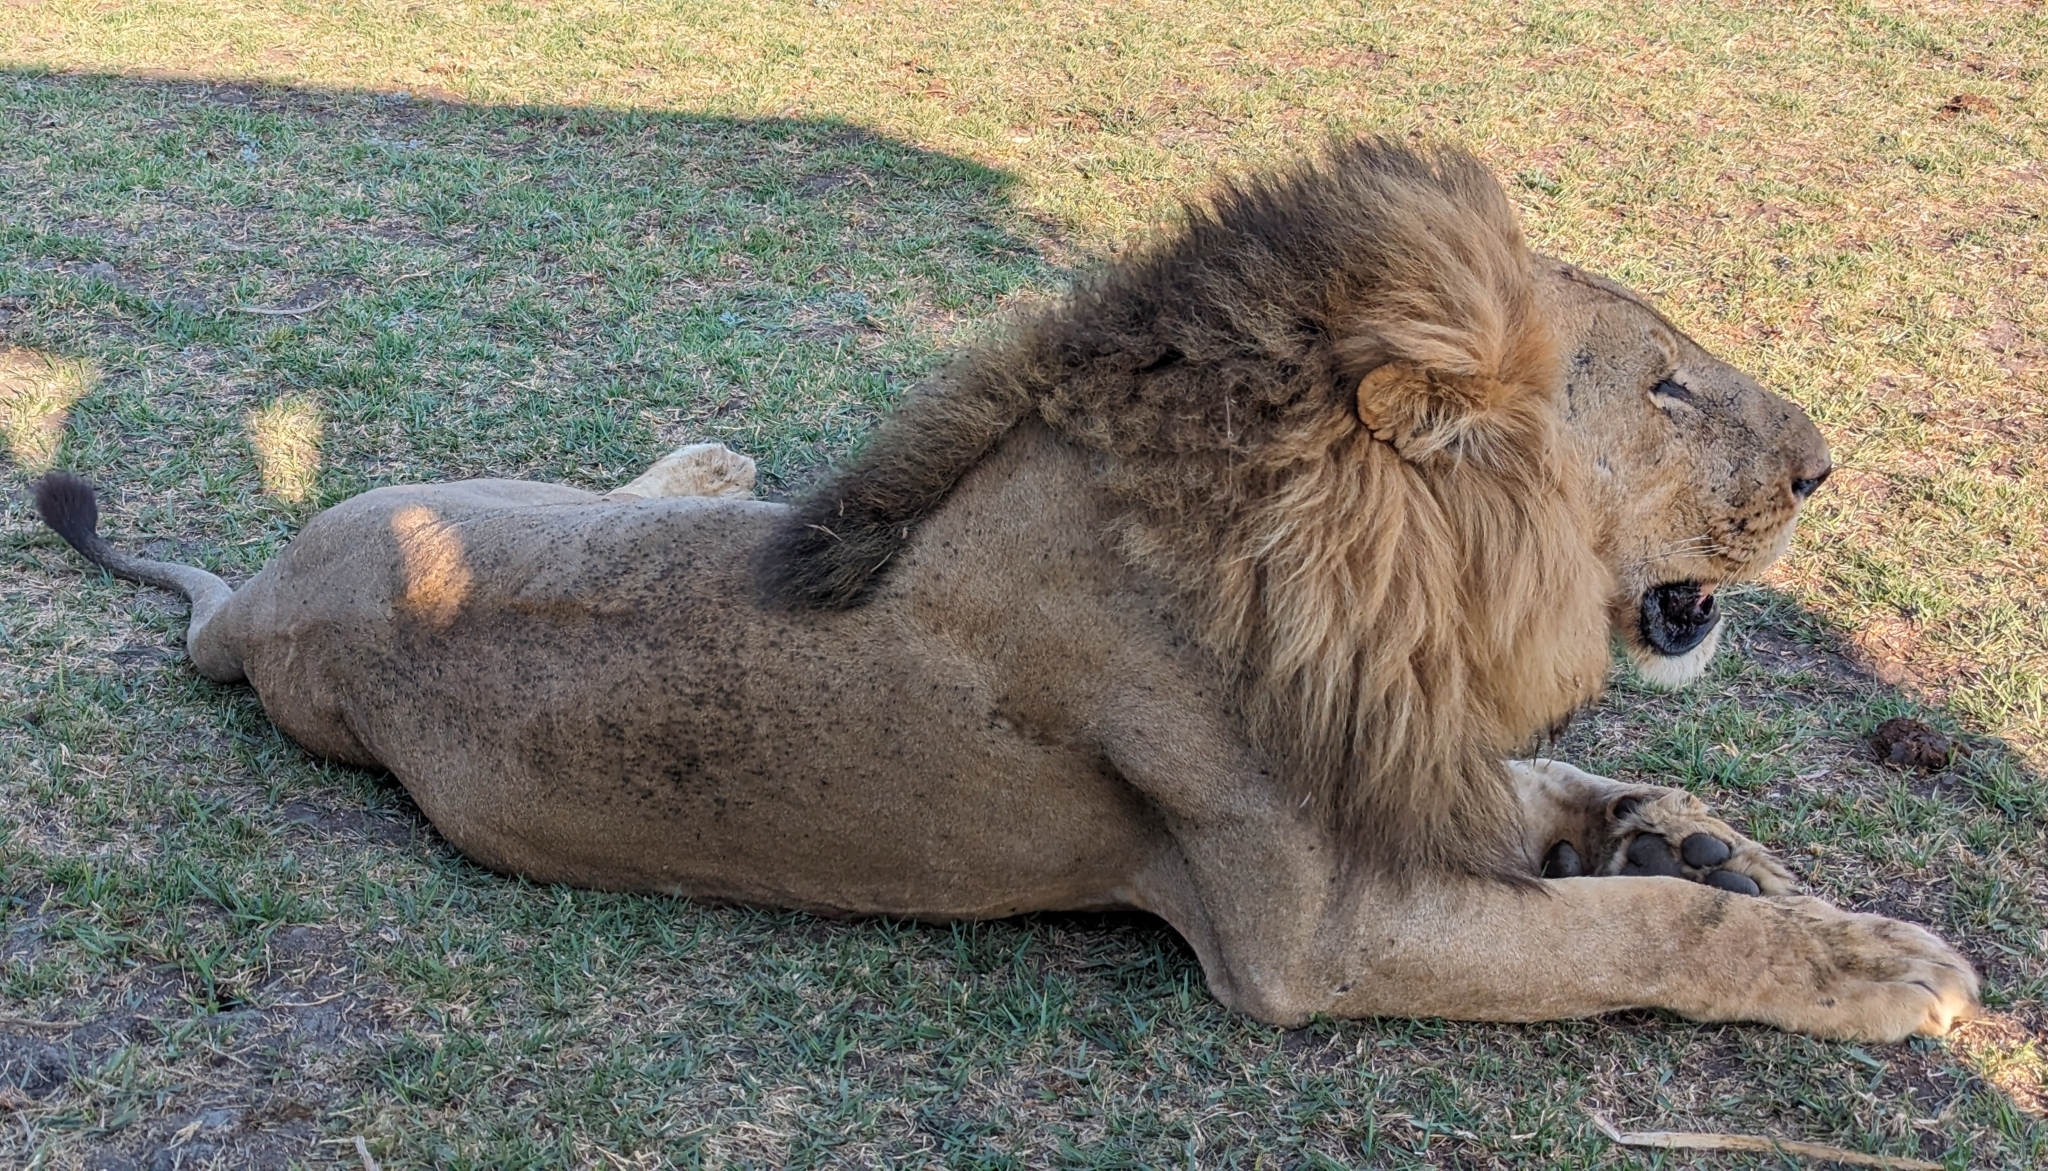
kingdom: Animalia
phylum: Chordata
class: Mammalia
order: Carnivora
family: Felidae
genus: Panthera
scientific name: Panthera leo
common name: Lion
